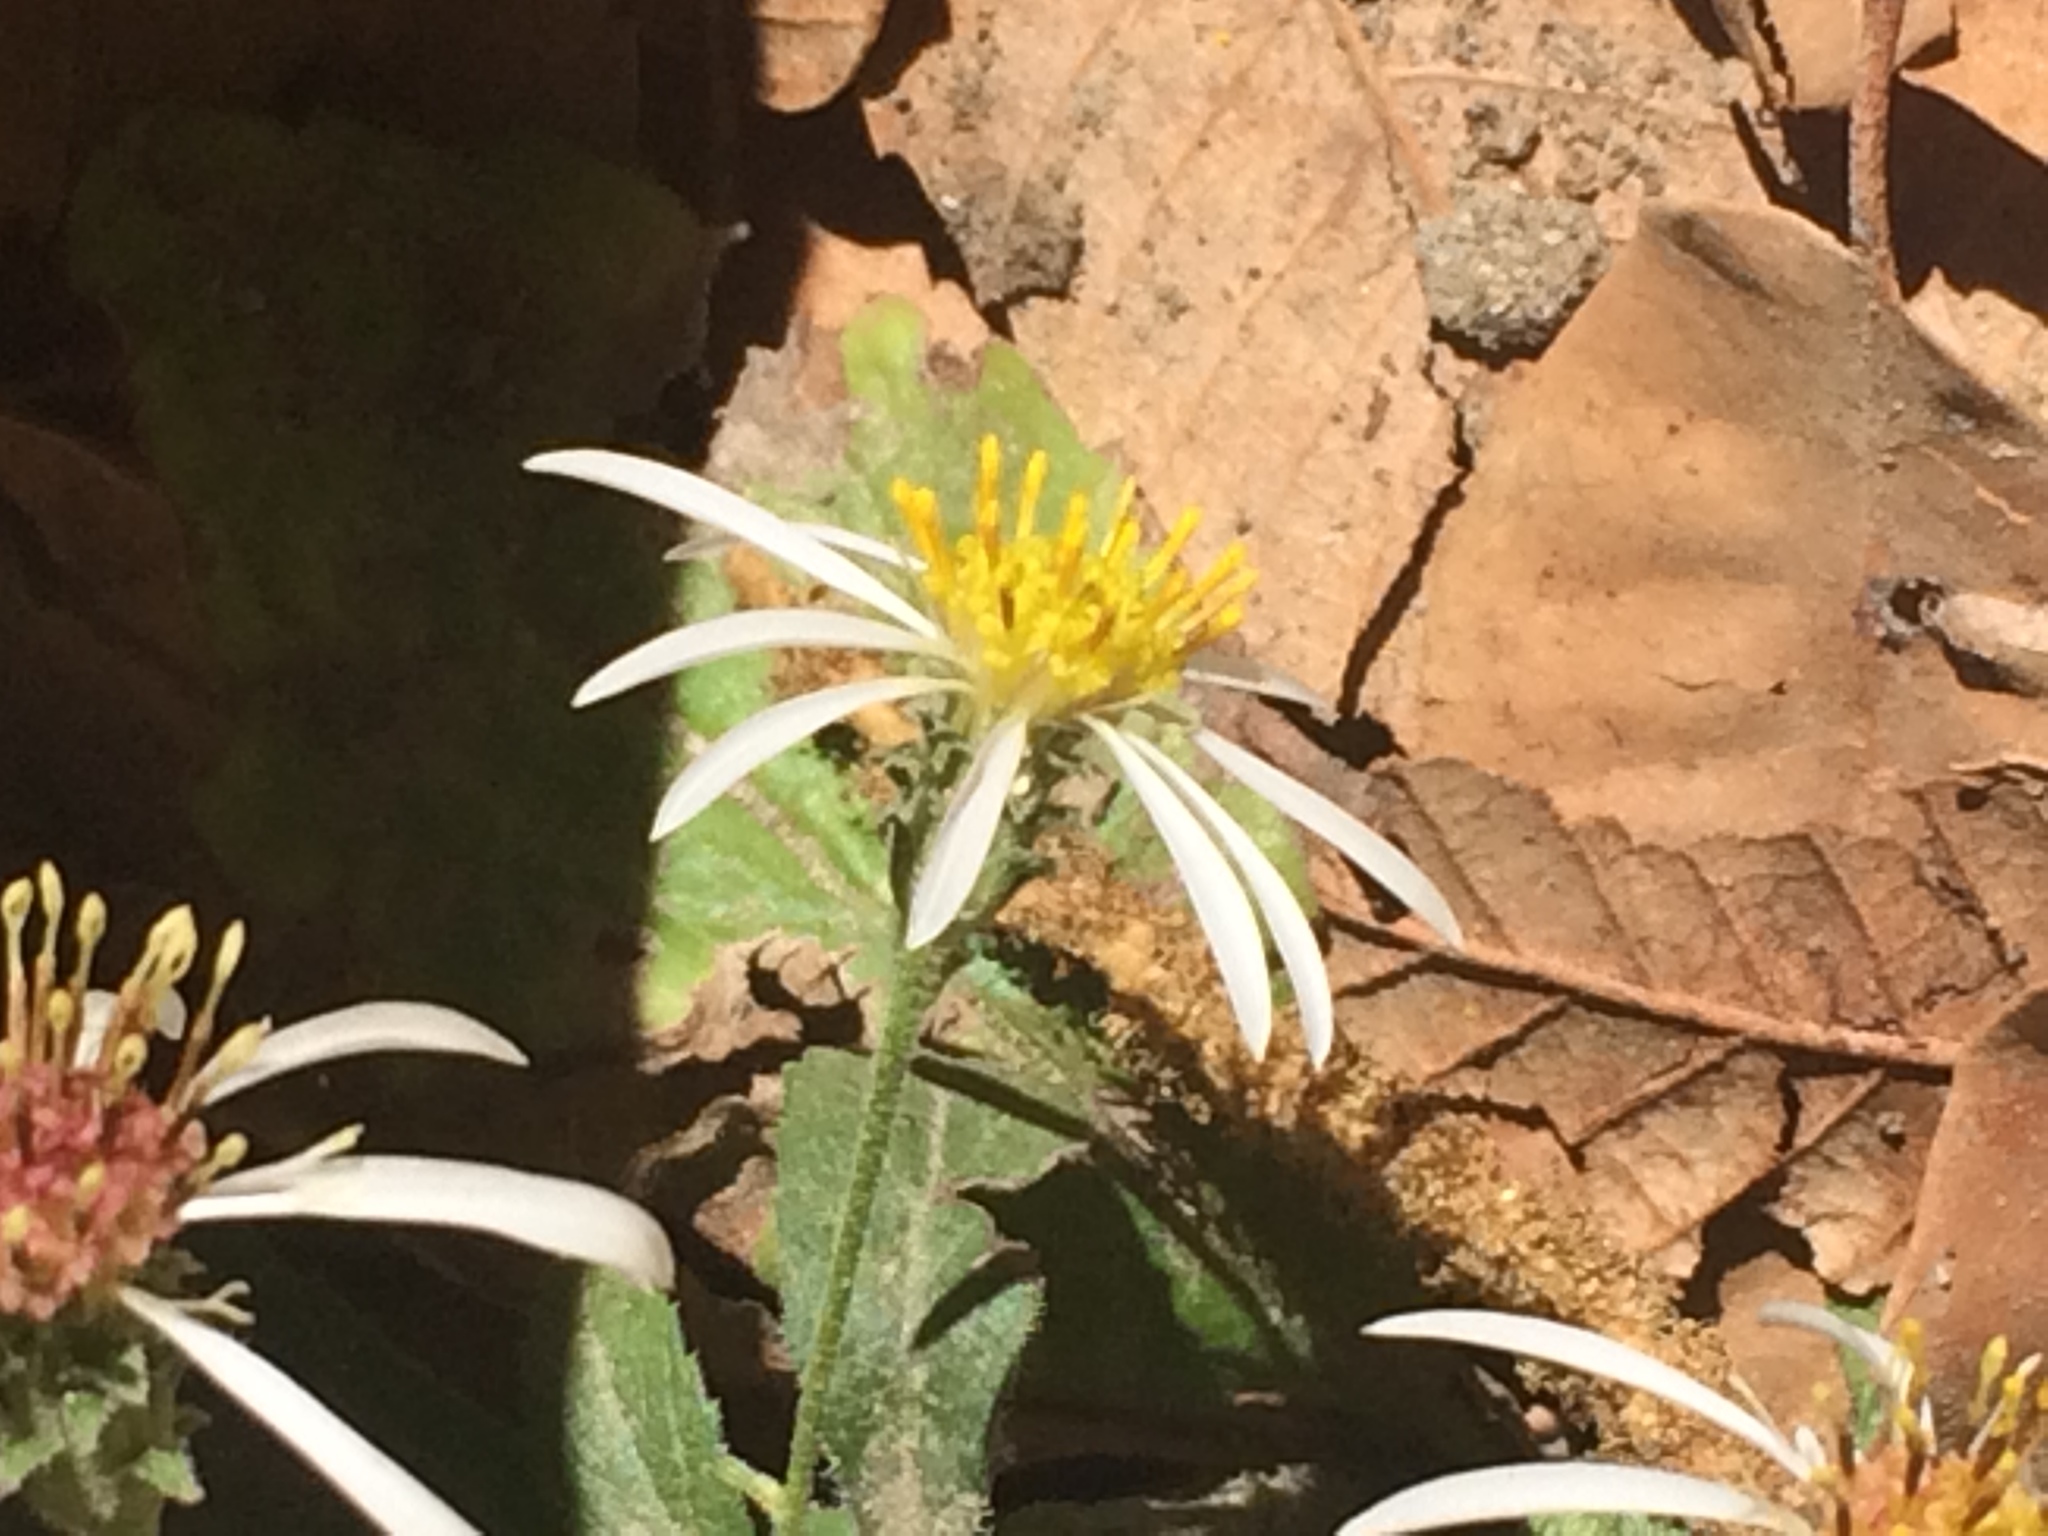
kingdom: Plantae
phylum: Tracheophyta
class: Magnoliopsida
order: Asterales
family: Asteraceae
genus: Eurybia
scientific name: Eurybia radulina
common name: Rough-leaved aster
